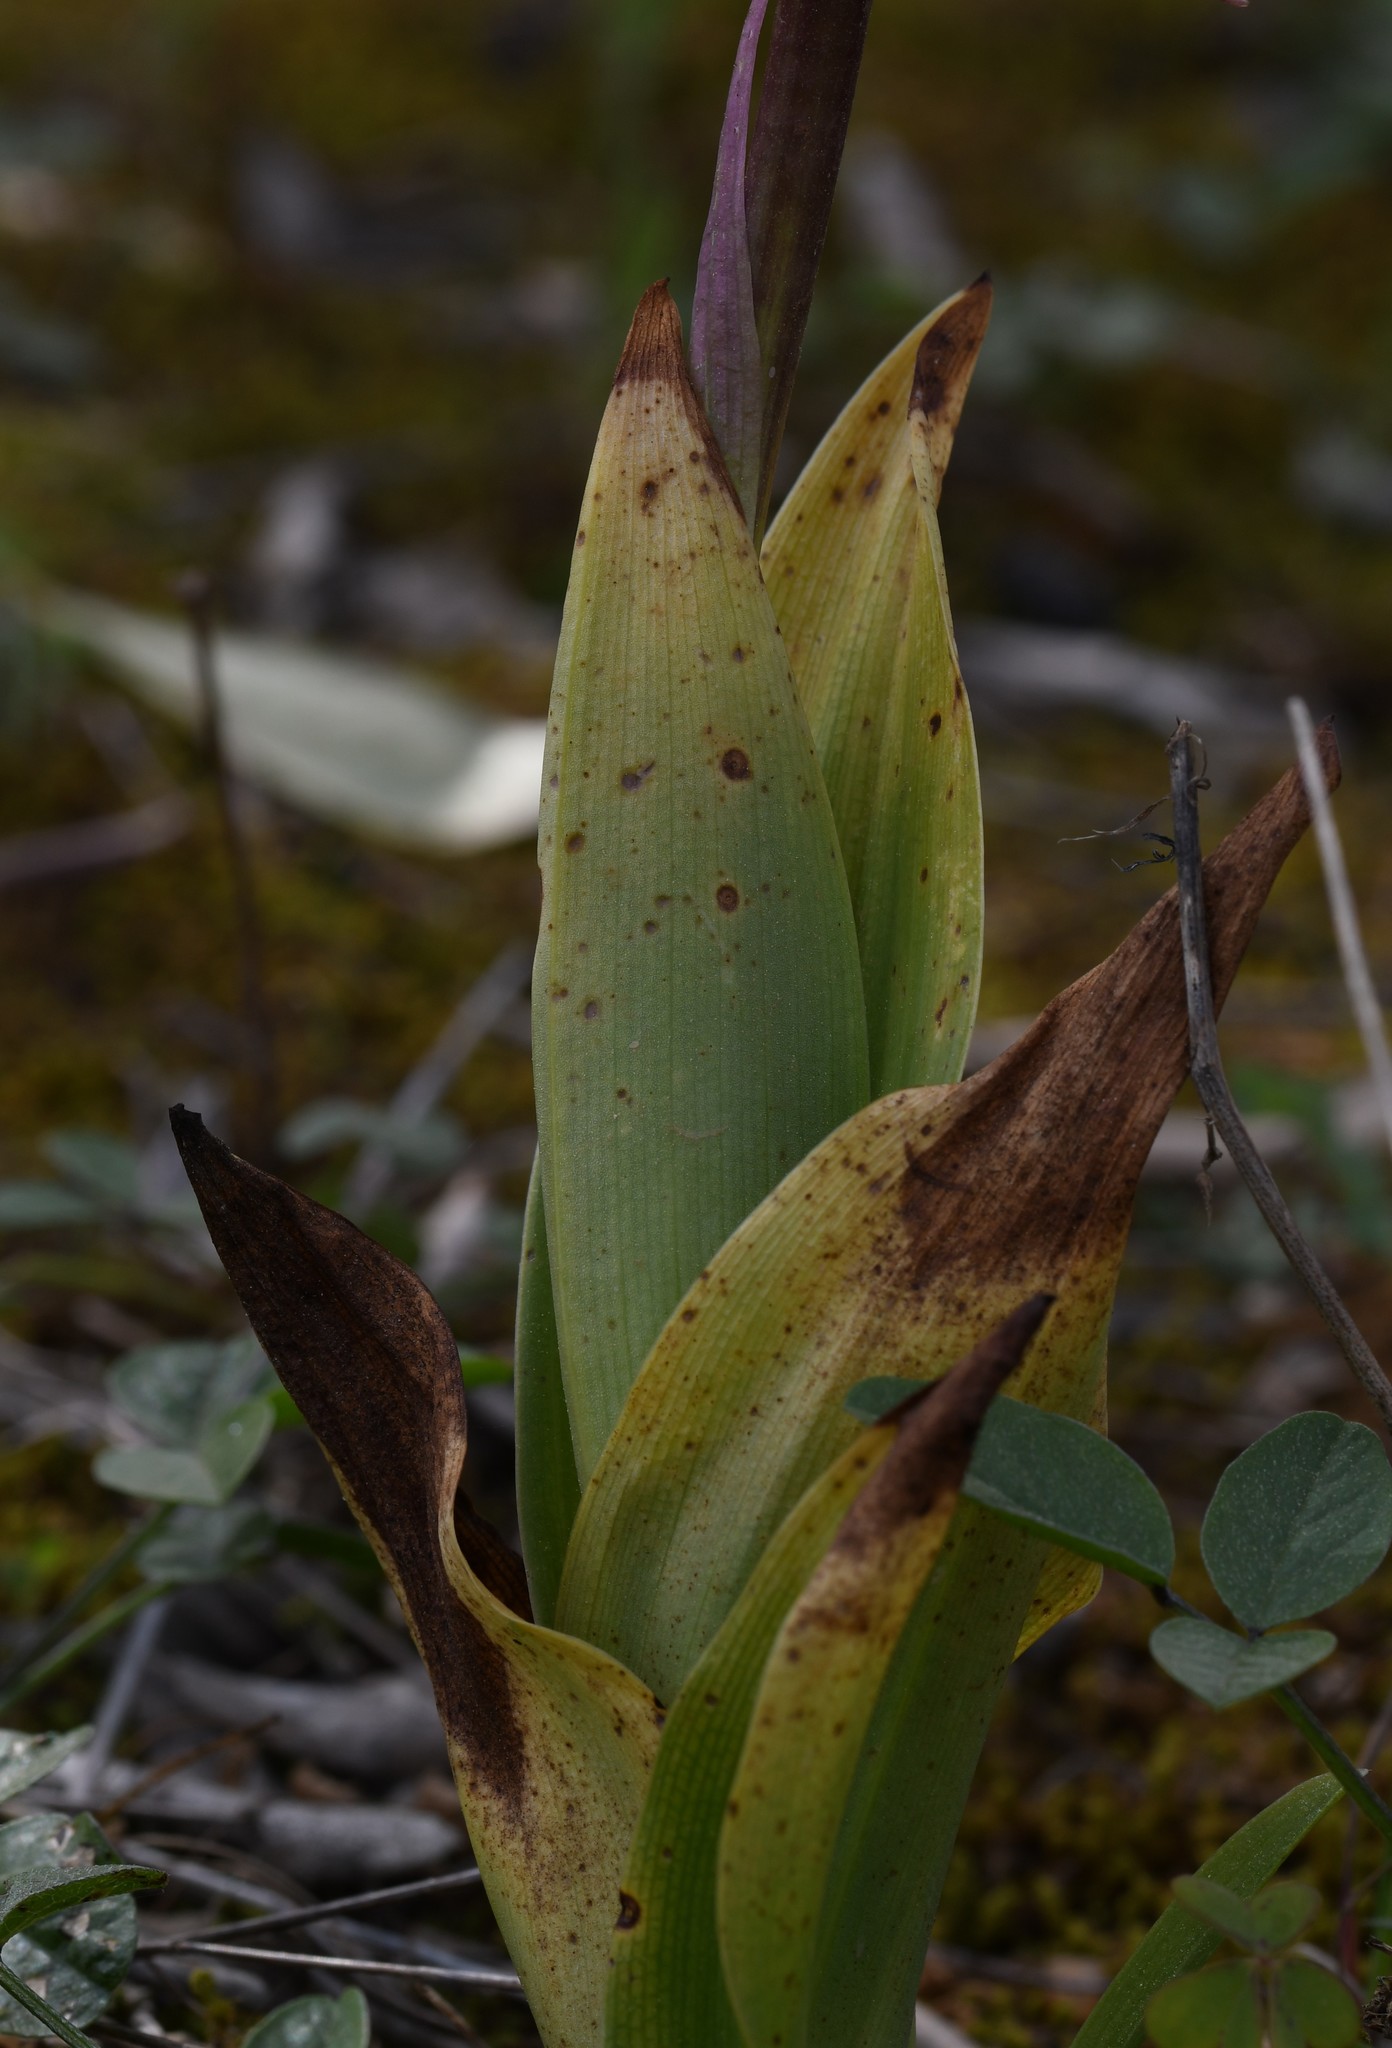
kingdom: Plantae
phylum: Tracheophyta
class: Liliopsida
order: Asparagales
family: Orchidaceae
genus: Himantoglossum
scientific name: Himantoglossum robertianum
